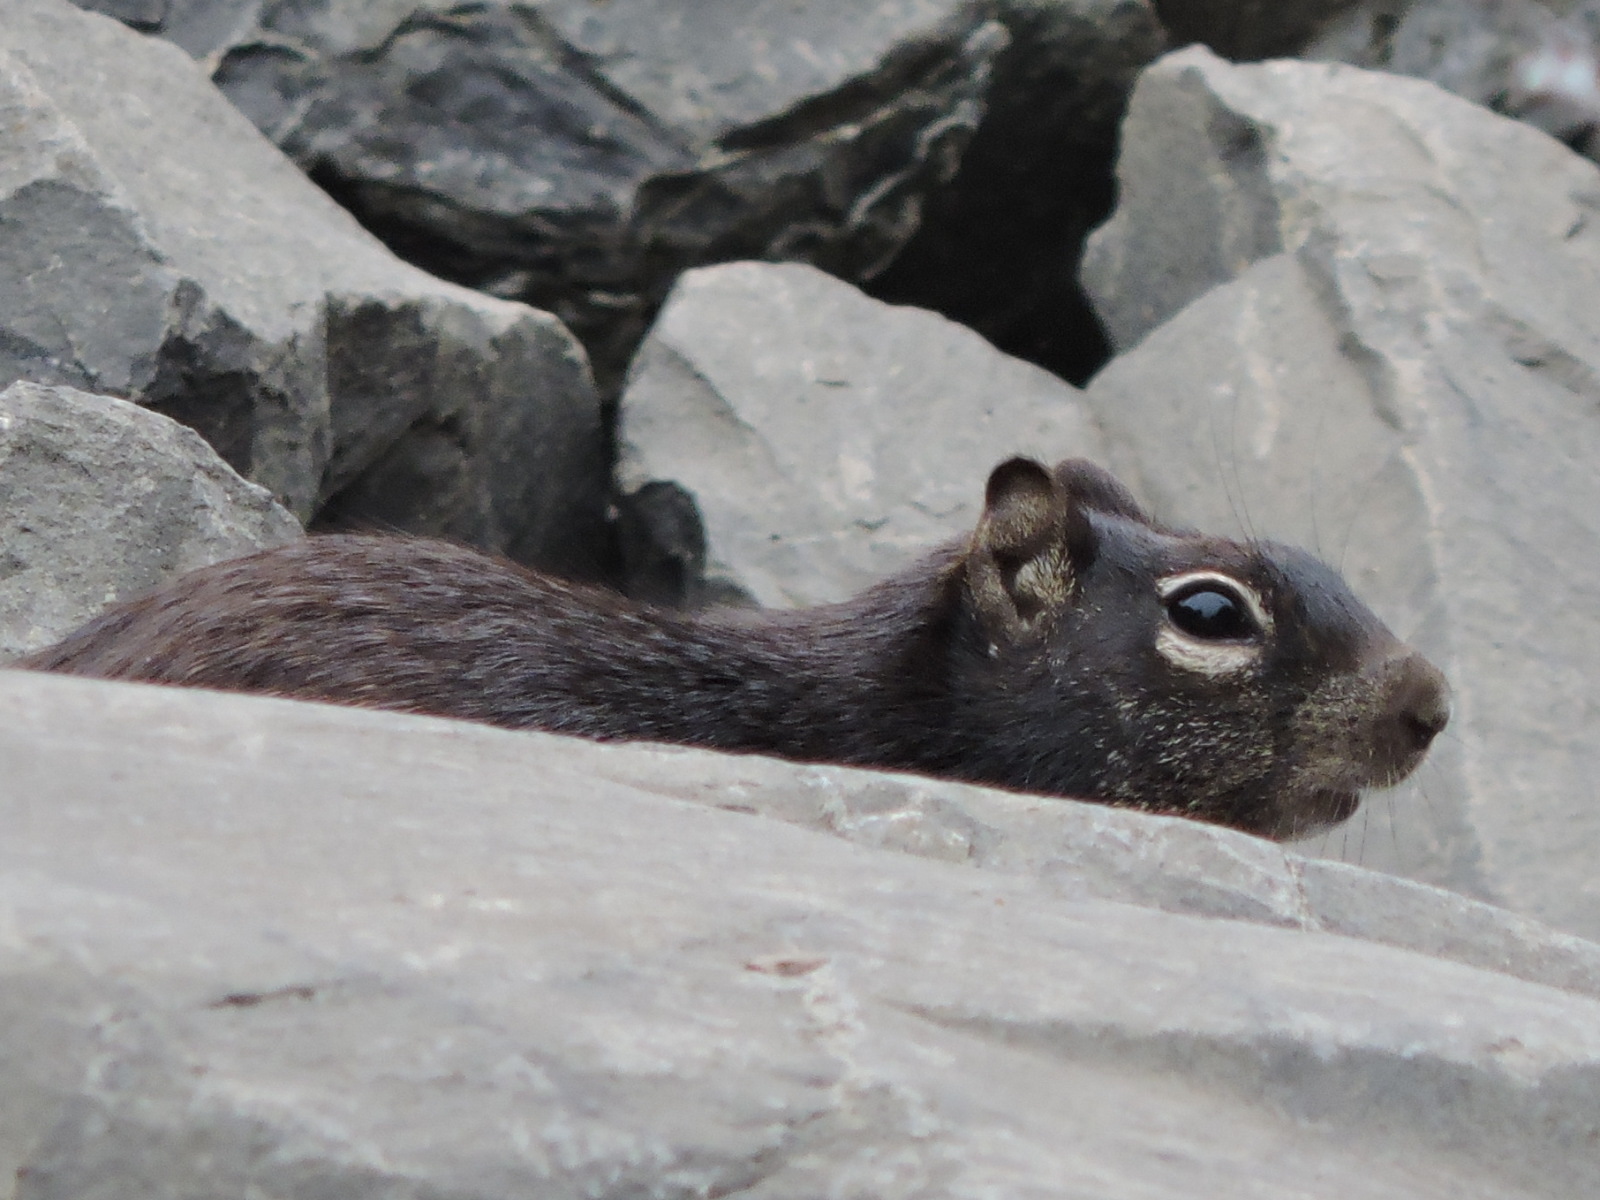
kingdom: Animalia
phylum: Chordata
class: Mammalia
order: Rodentia
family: Sciuridae
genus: Otospermophilus
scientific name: Otospermophilus variegatus
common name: Rock squirrel
